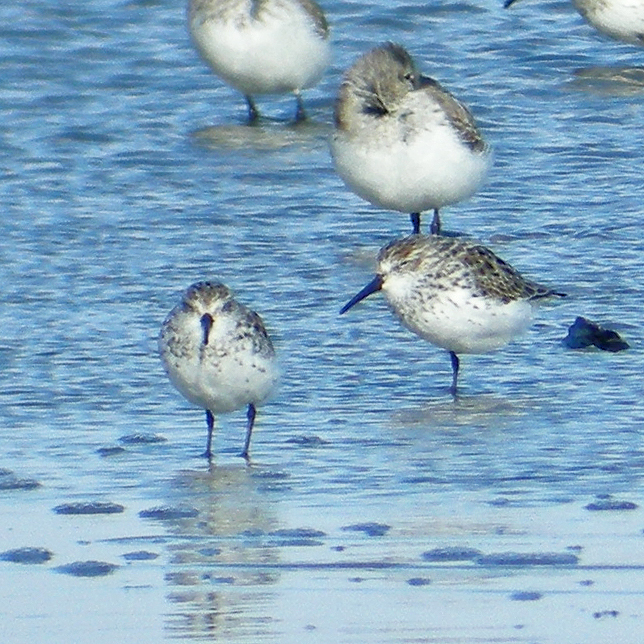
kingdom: Animalia
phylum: Chordata
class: Aves
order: Charadriiformes
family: Scolopacidae
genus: Calidris
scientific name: Calidris mauri
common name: Western sandpiper
